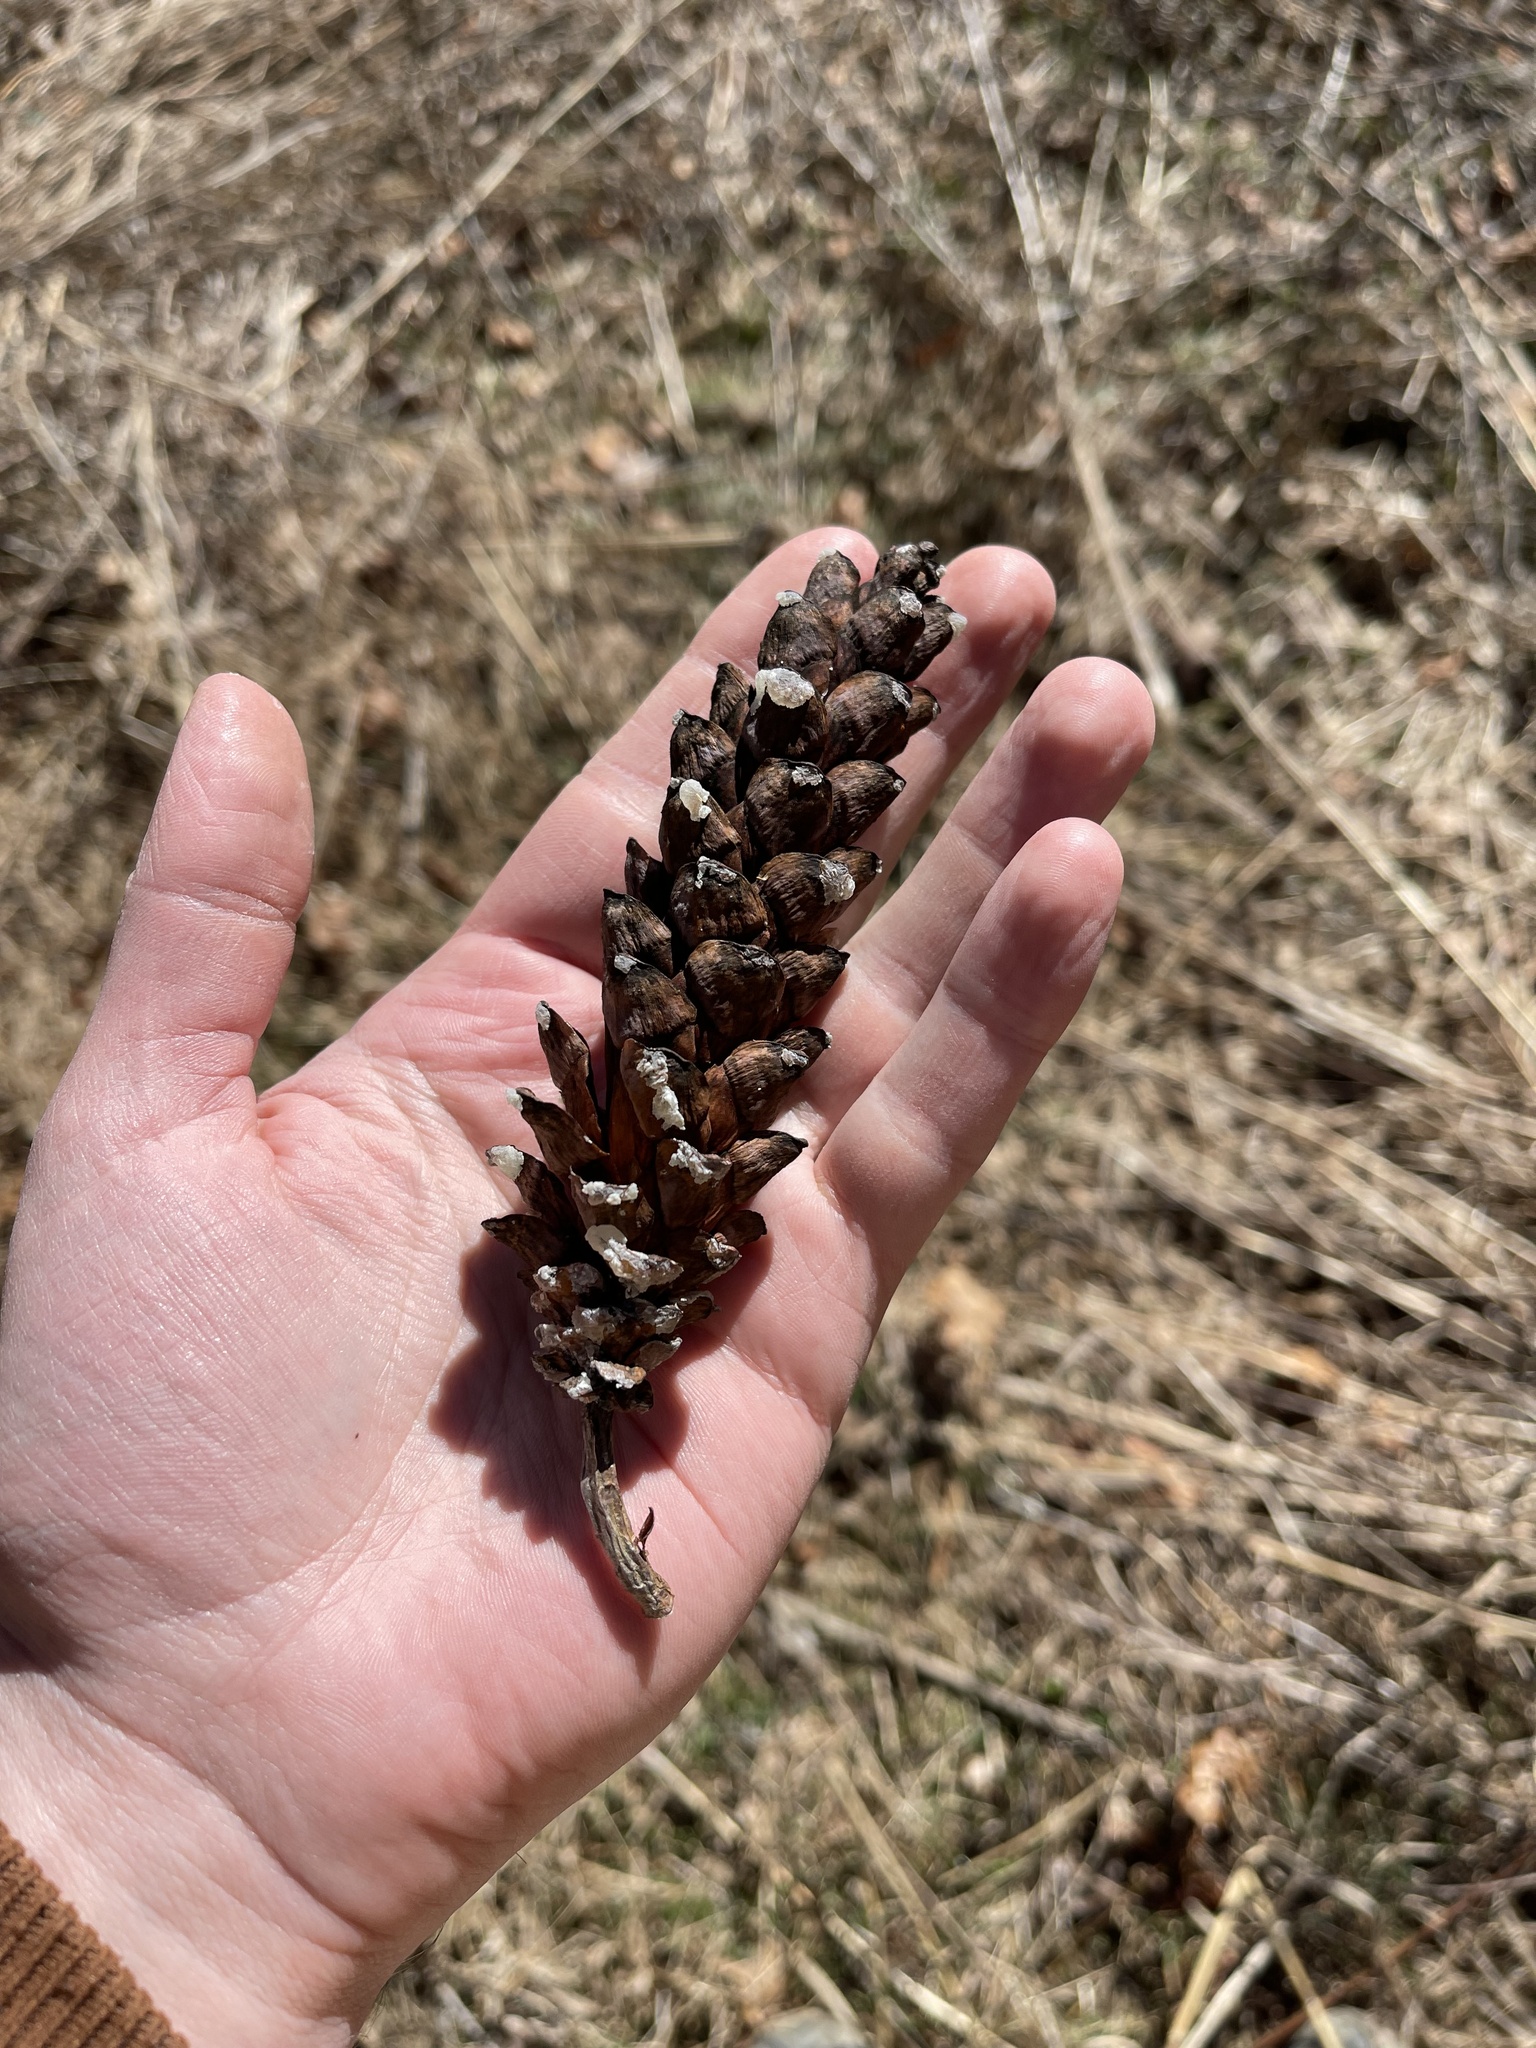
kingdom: Plantae
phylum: Tracheophyta
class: Pinopsida
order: Pinales
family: Pinaceae
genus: Pinus
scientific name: Pinus strobus
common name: Weymouth pine
